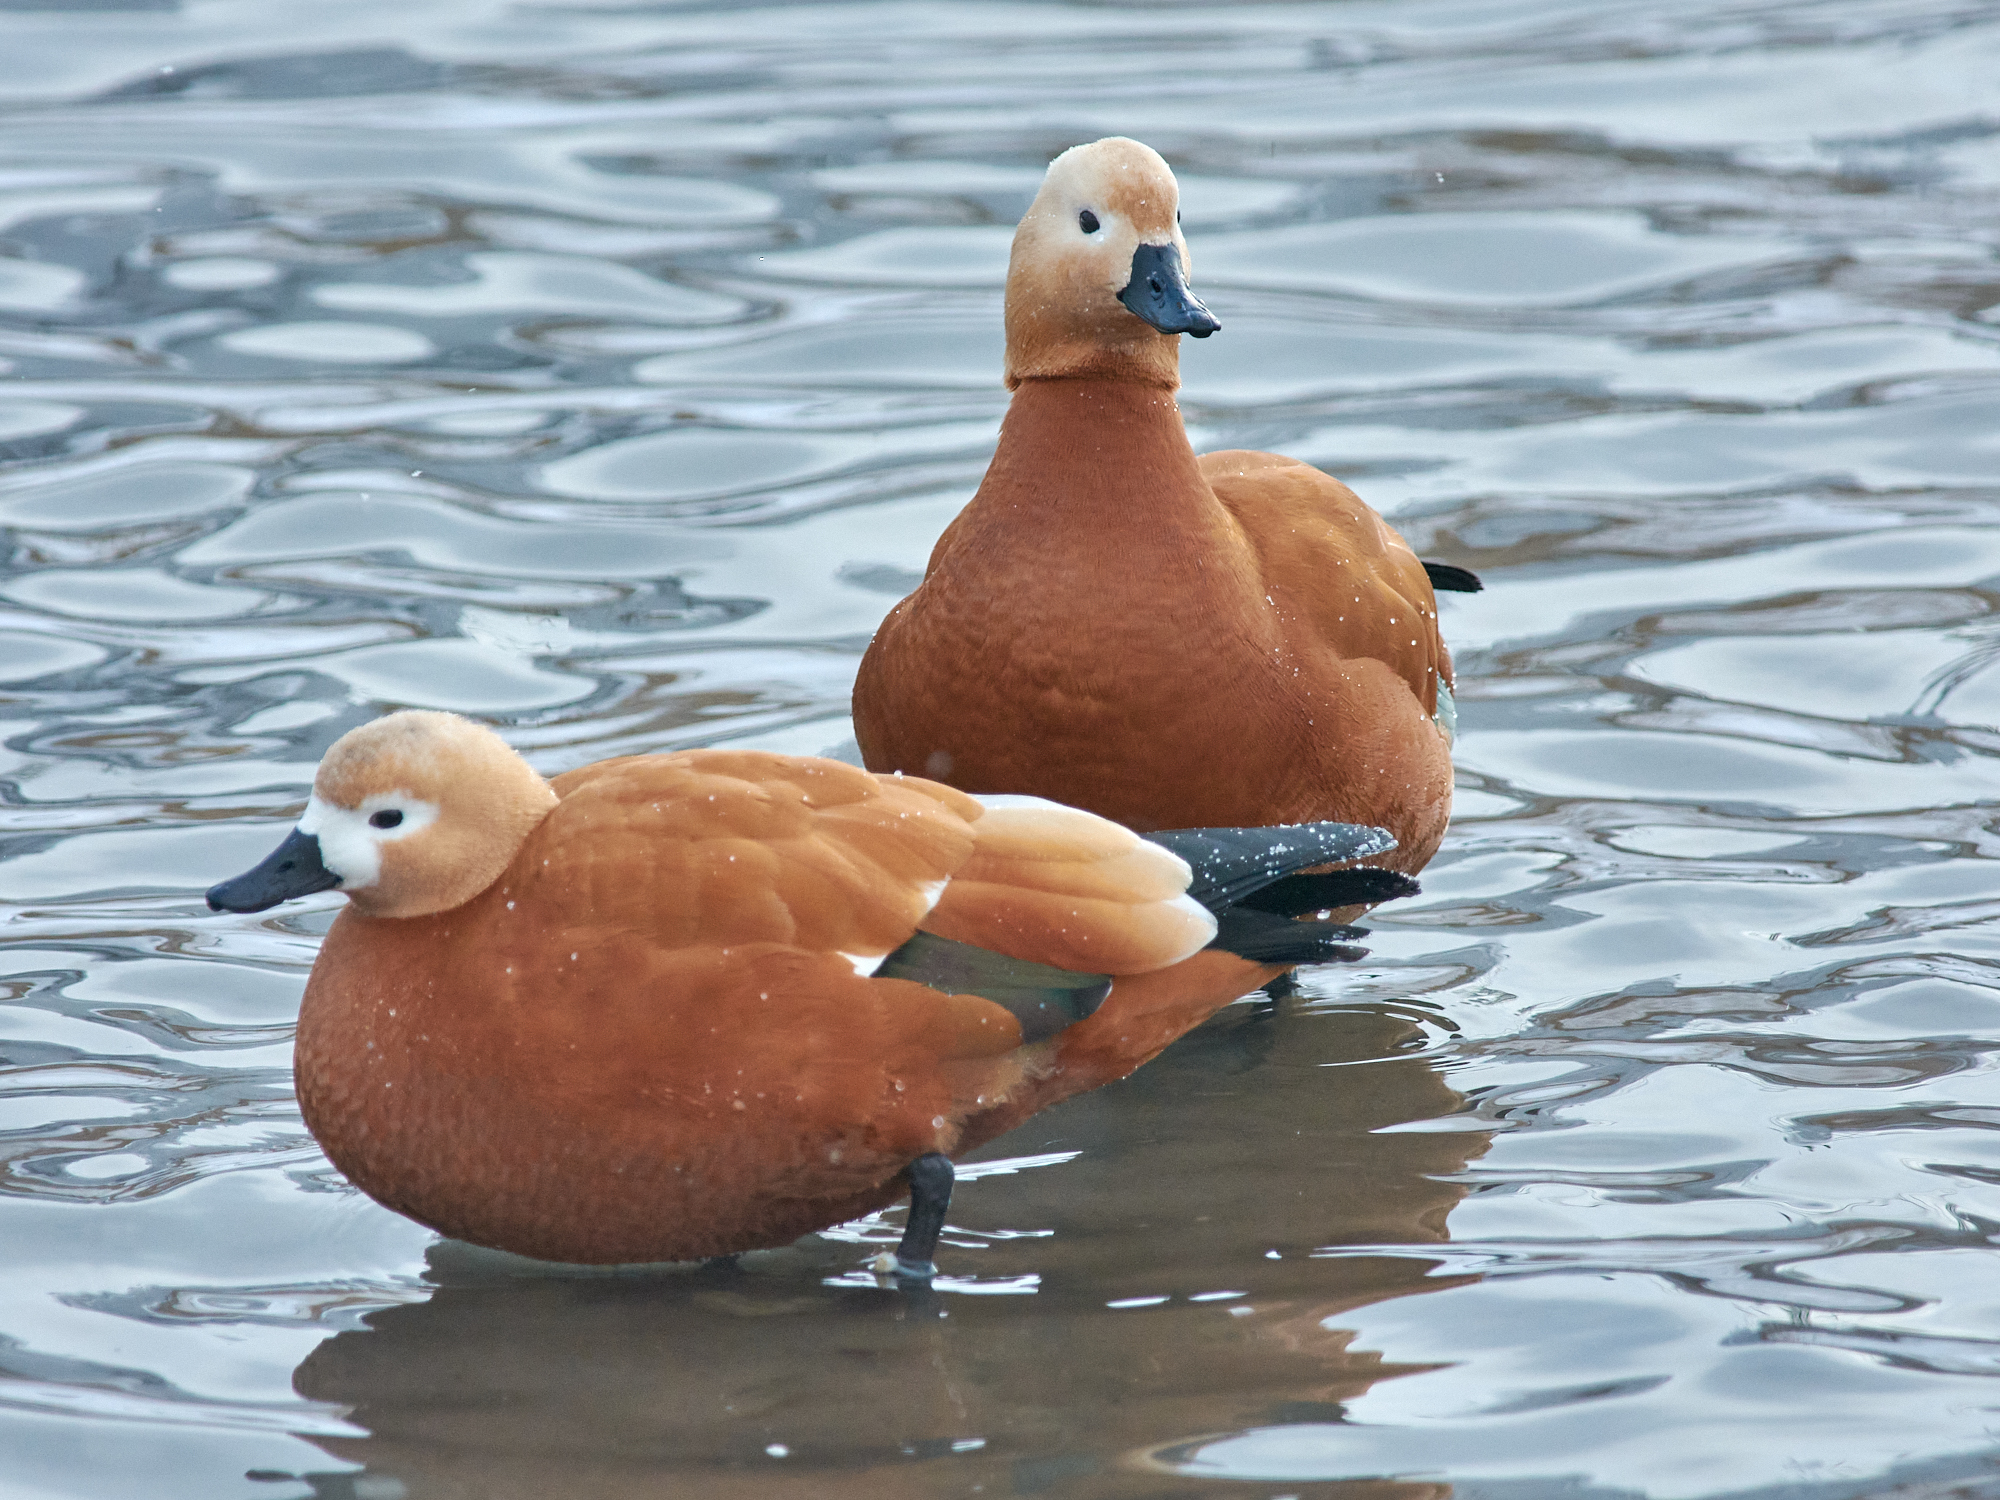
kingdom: Animalia
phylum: Chordata
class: Aves
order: Anseriformes
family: Anatidae
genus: Tadorna
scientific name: Tadorna ferruginea
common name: Ruddy shelduck
